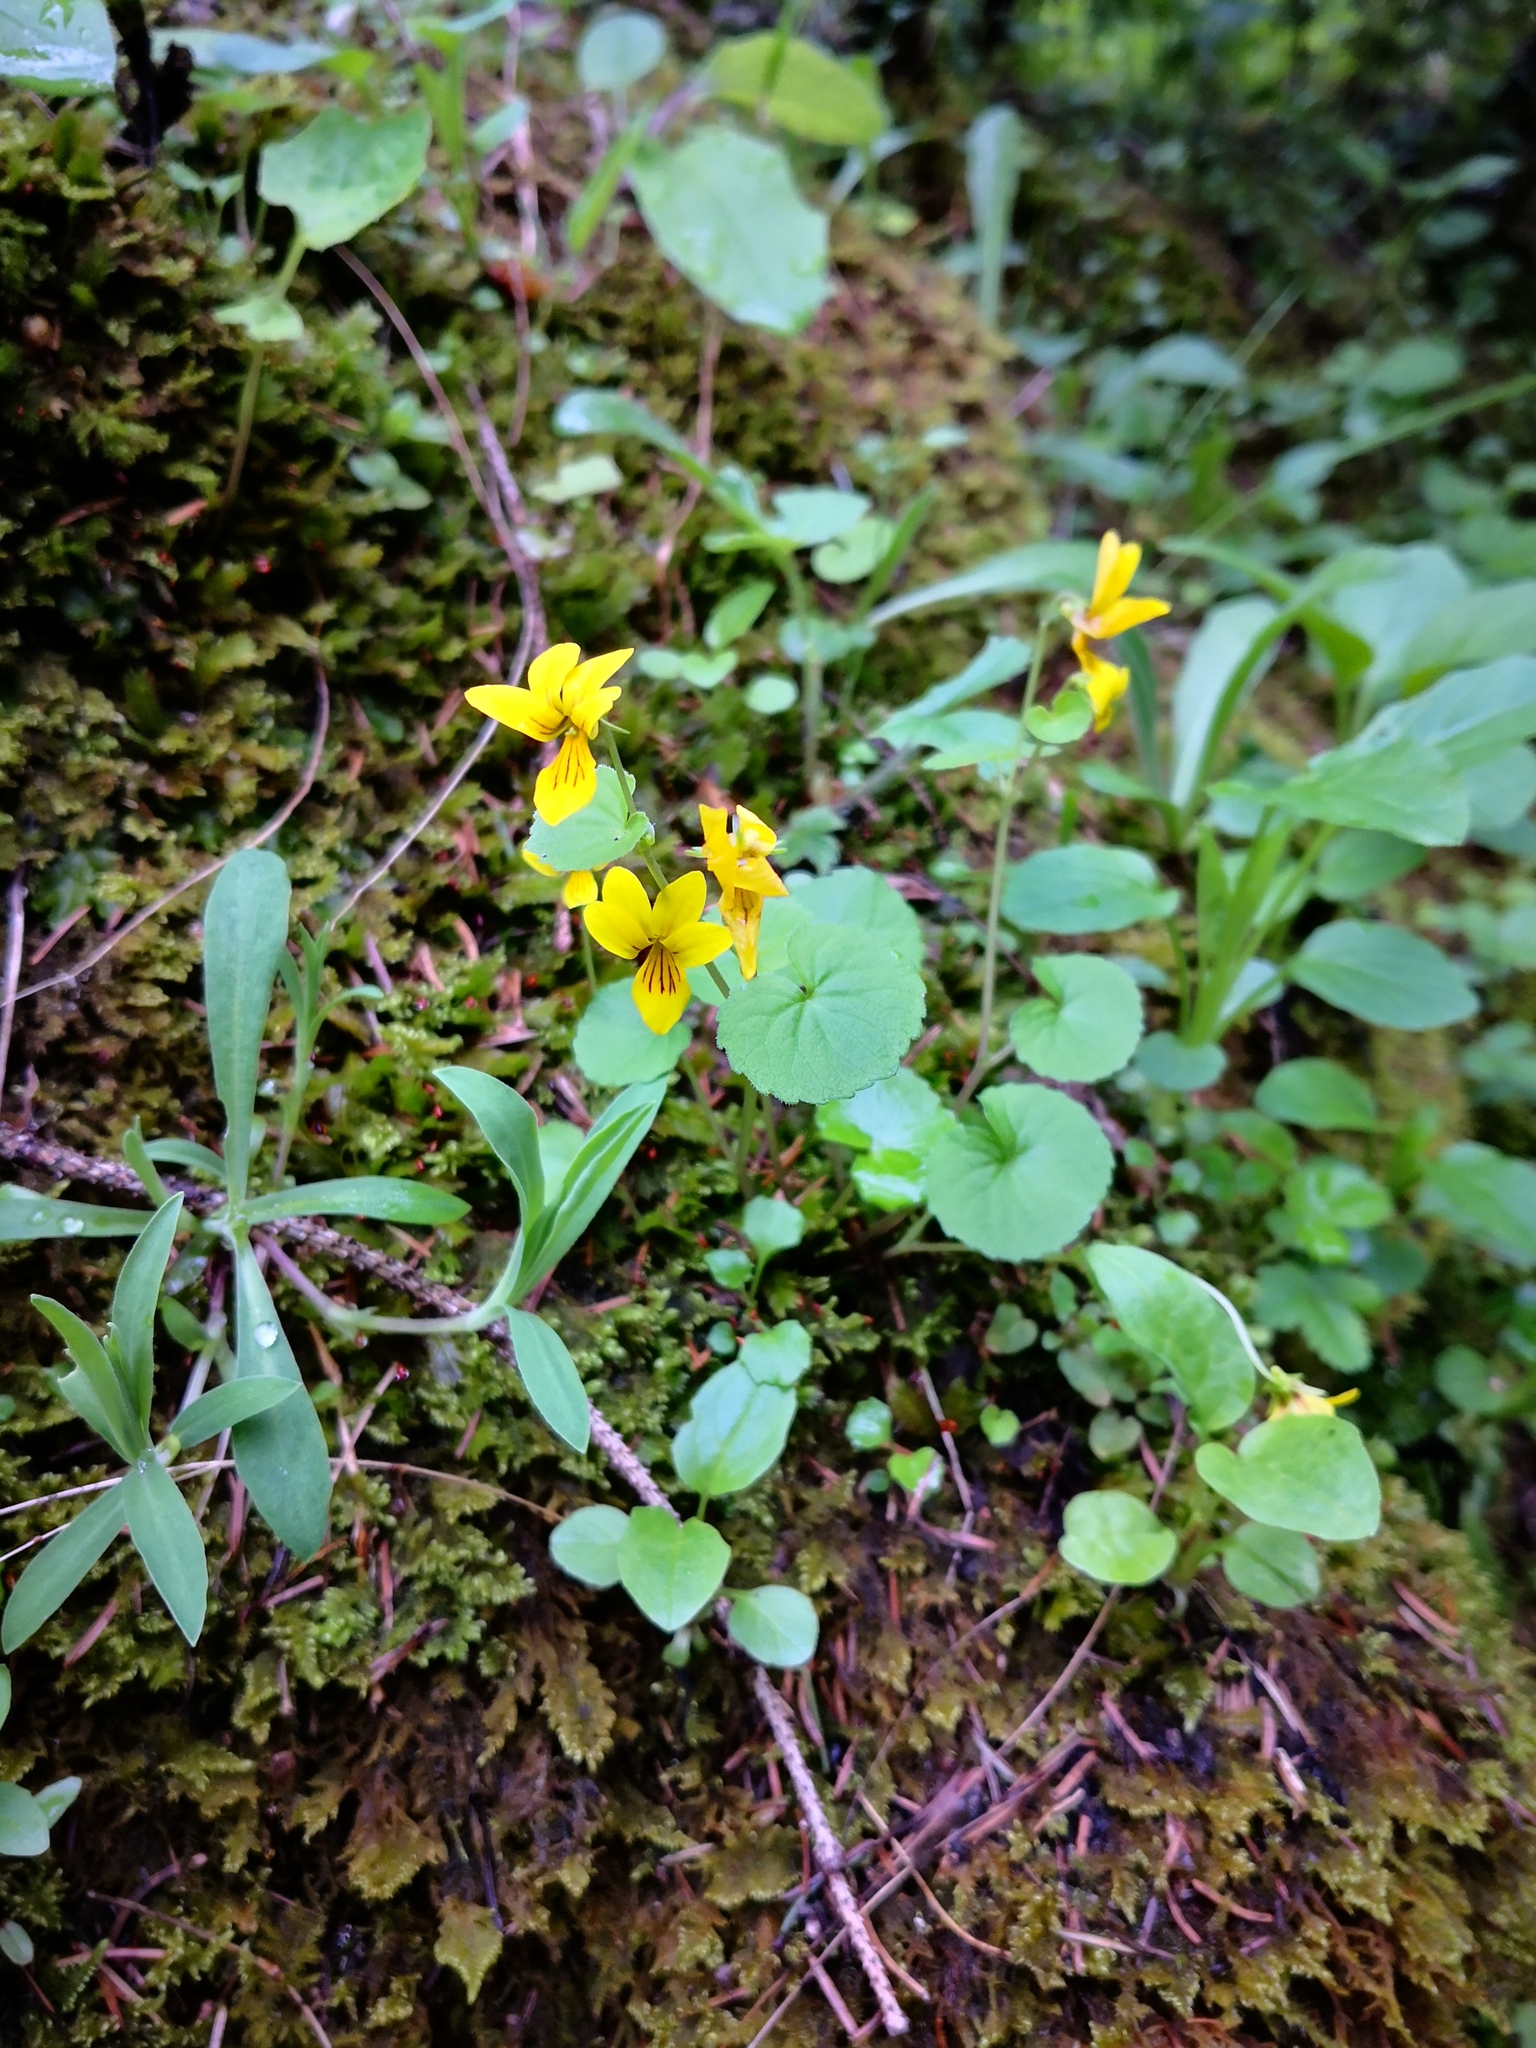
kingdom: Plantae
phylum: Tracheophyta
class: Magnoliopsida
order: Malpighiales
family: Violaceae
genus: Viola
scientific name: Viola biflora
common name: Alpine yellow violet
